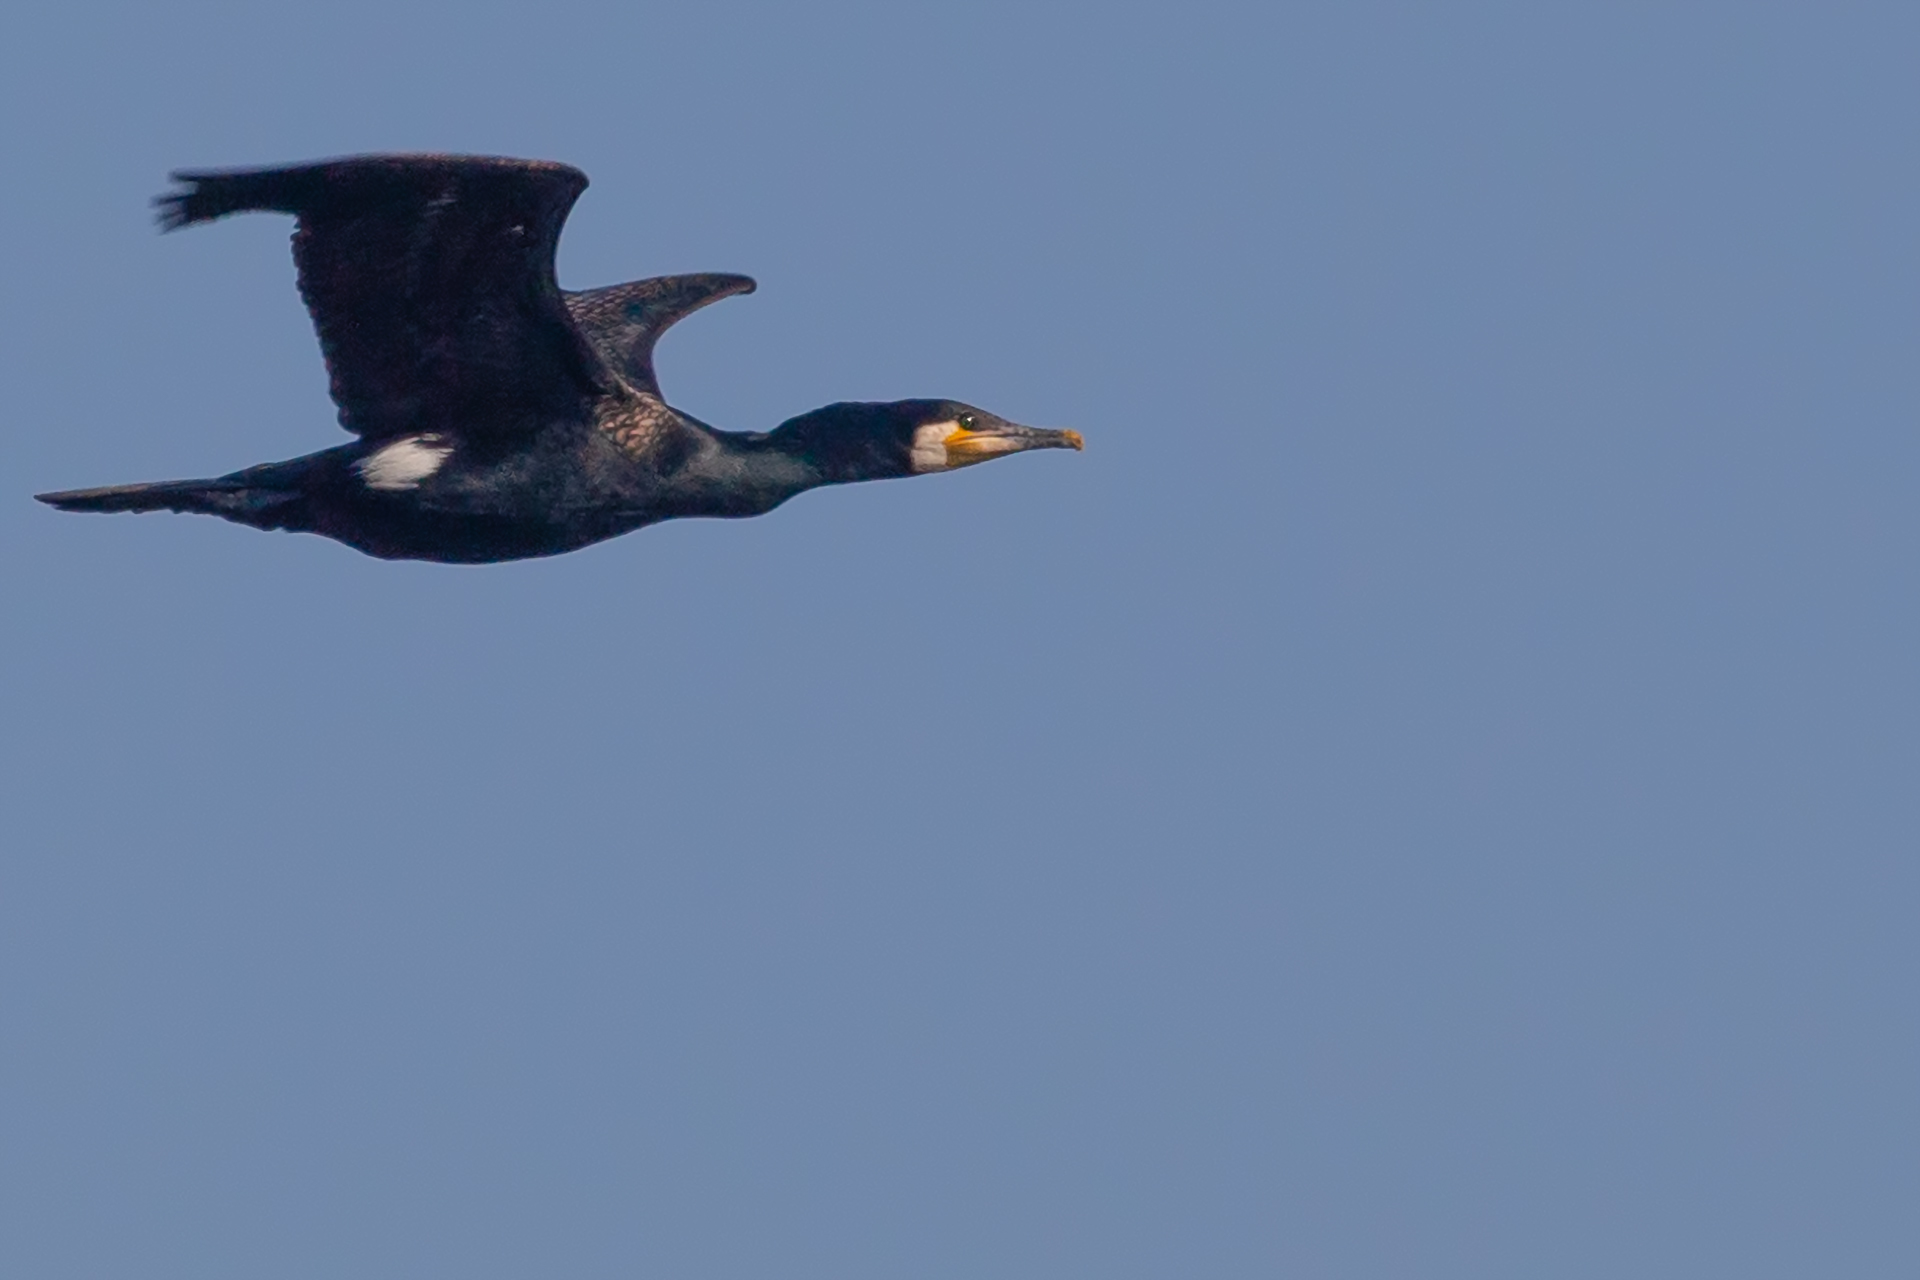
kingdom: Animalia
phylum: Chordata
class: Aves
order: Suliformes
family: Phalacrocoracidae
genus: Phalacrocorax
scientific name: Phalacrocorax carbo
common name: Great cormorant
